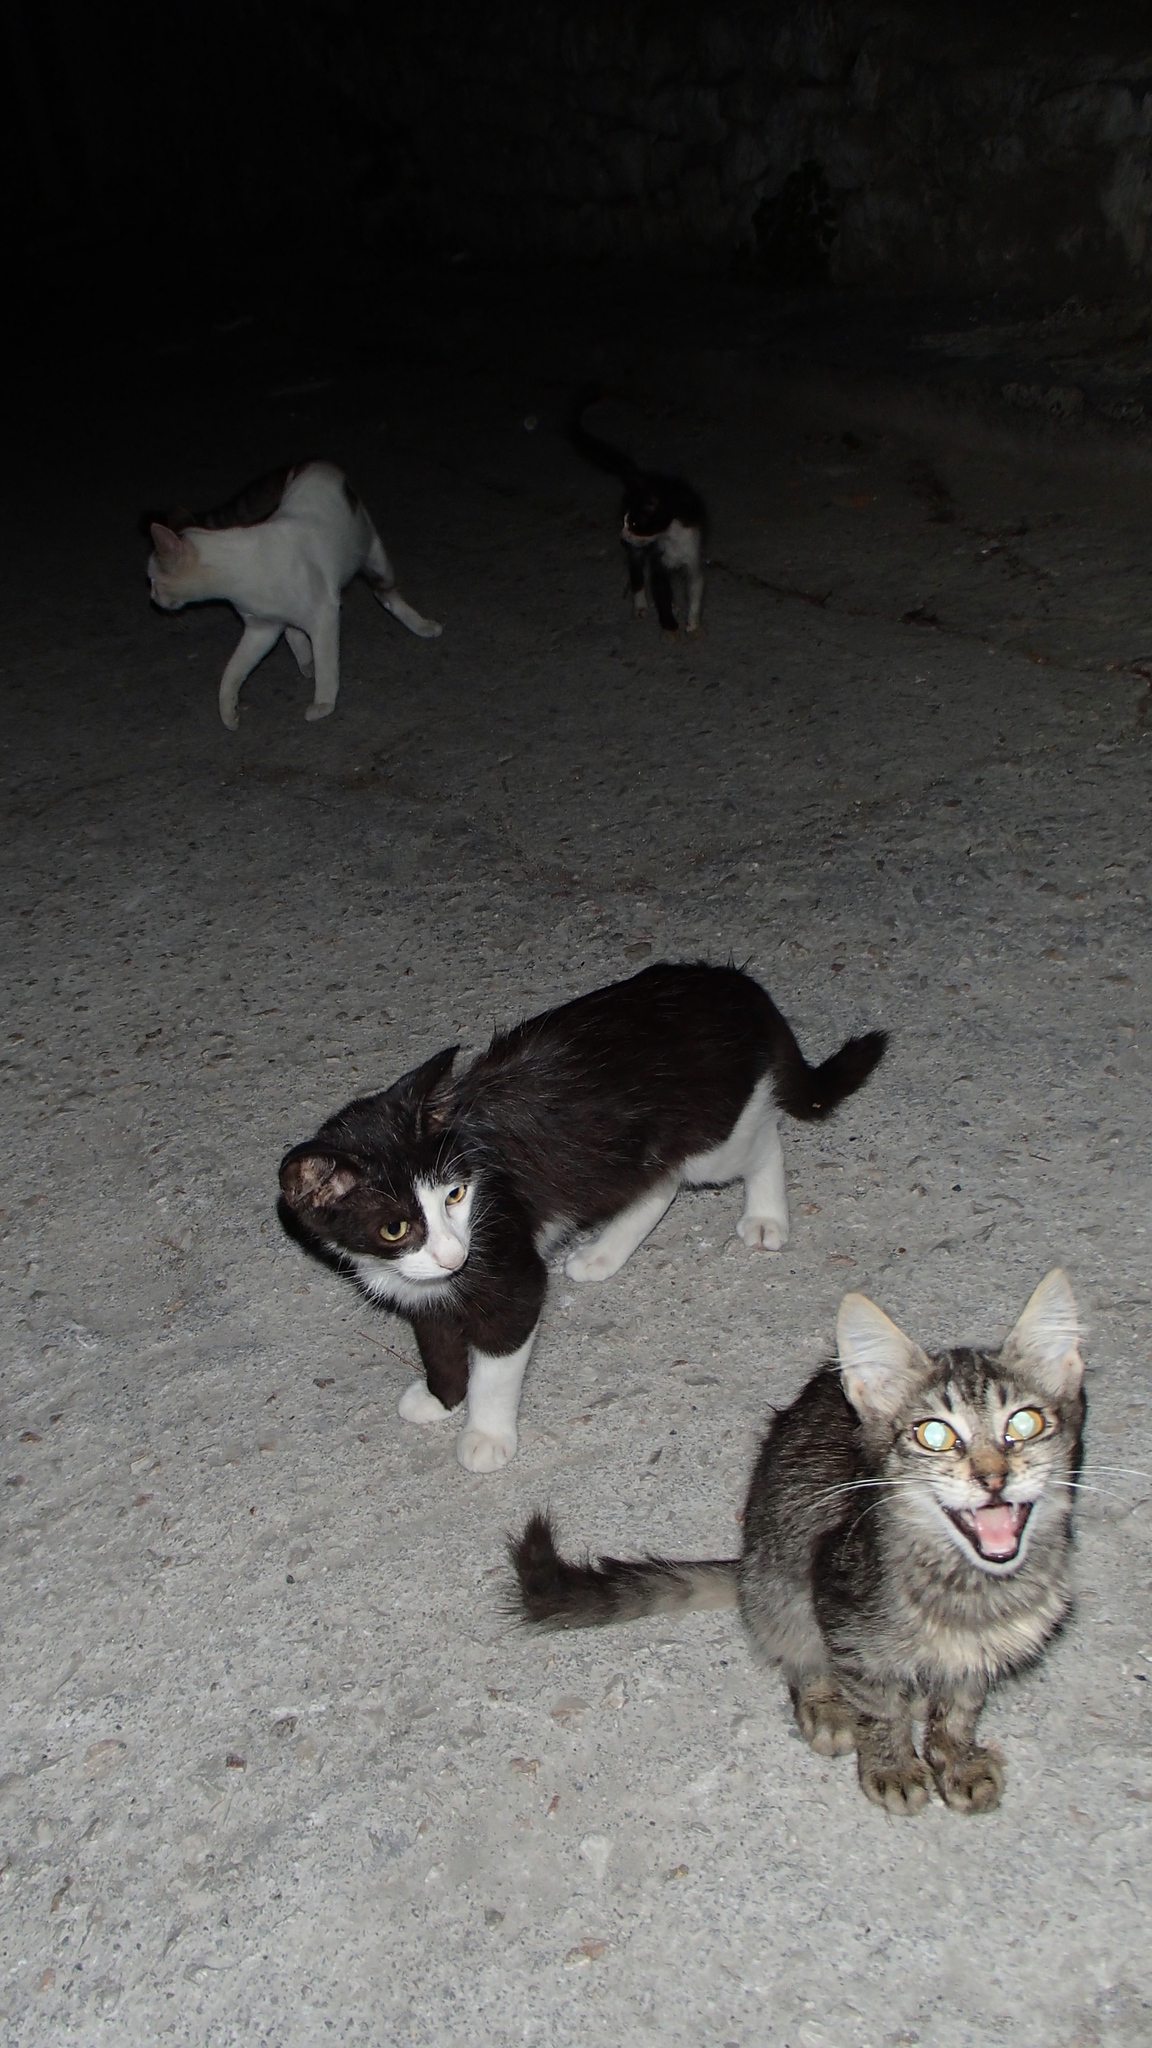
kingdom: Animalia
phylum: Chordata
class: Mammalia
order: Carnivora
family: Felidae
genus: Felis
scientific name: Felis catus
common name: Domestic cat
